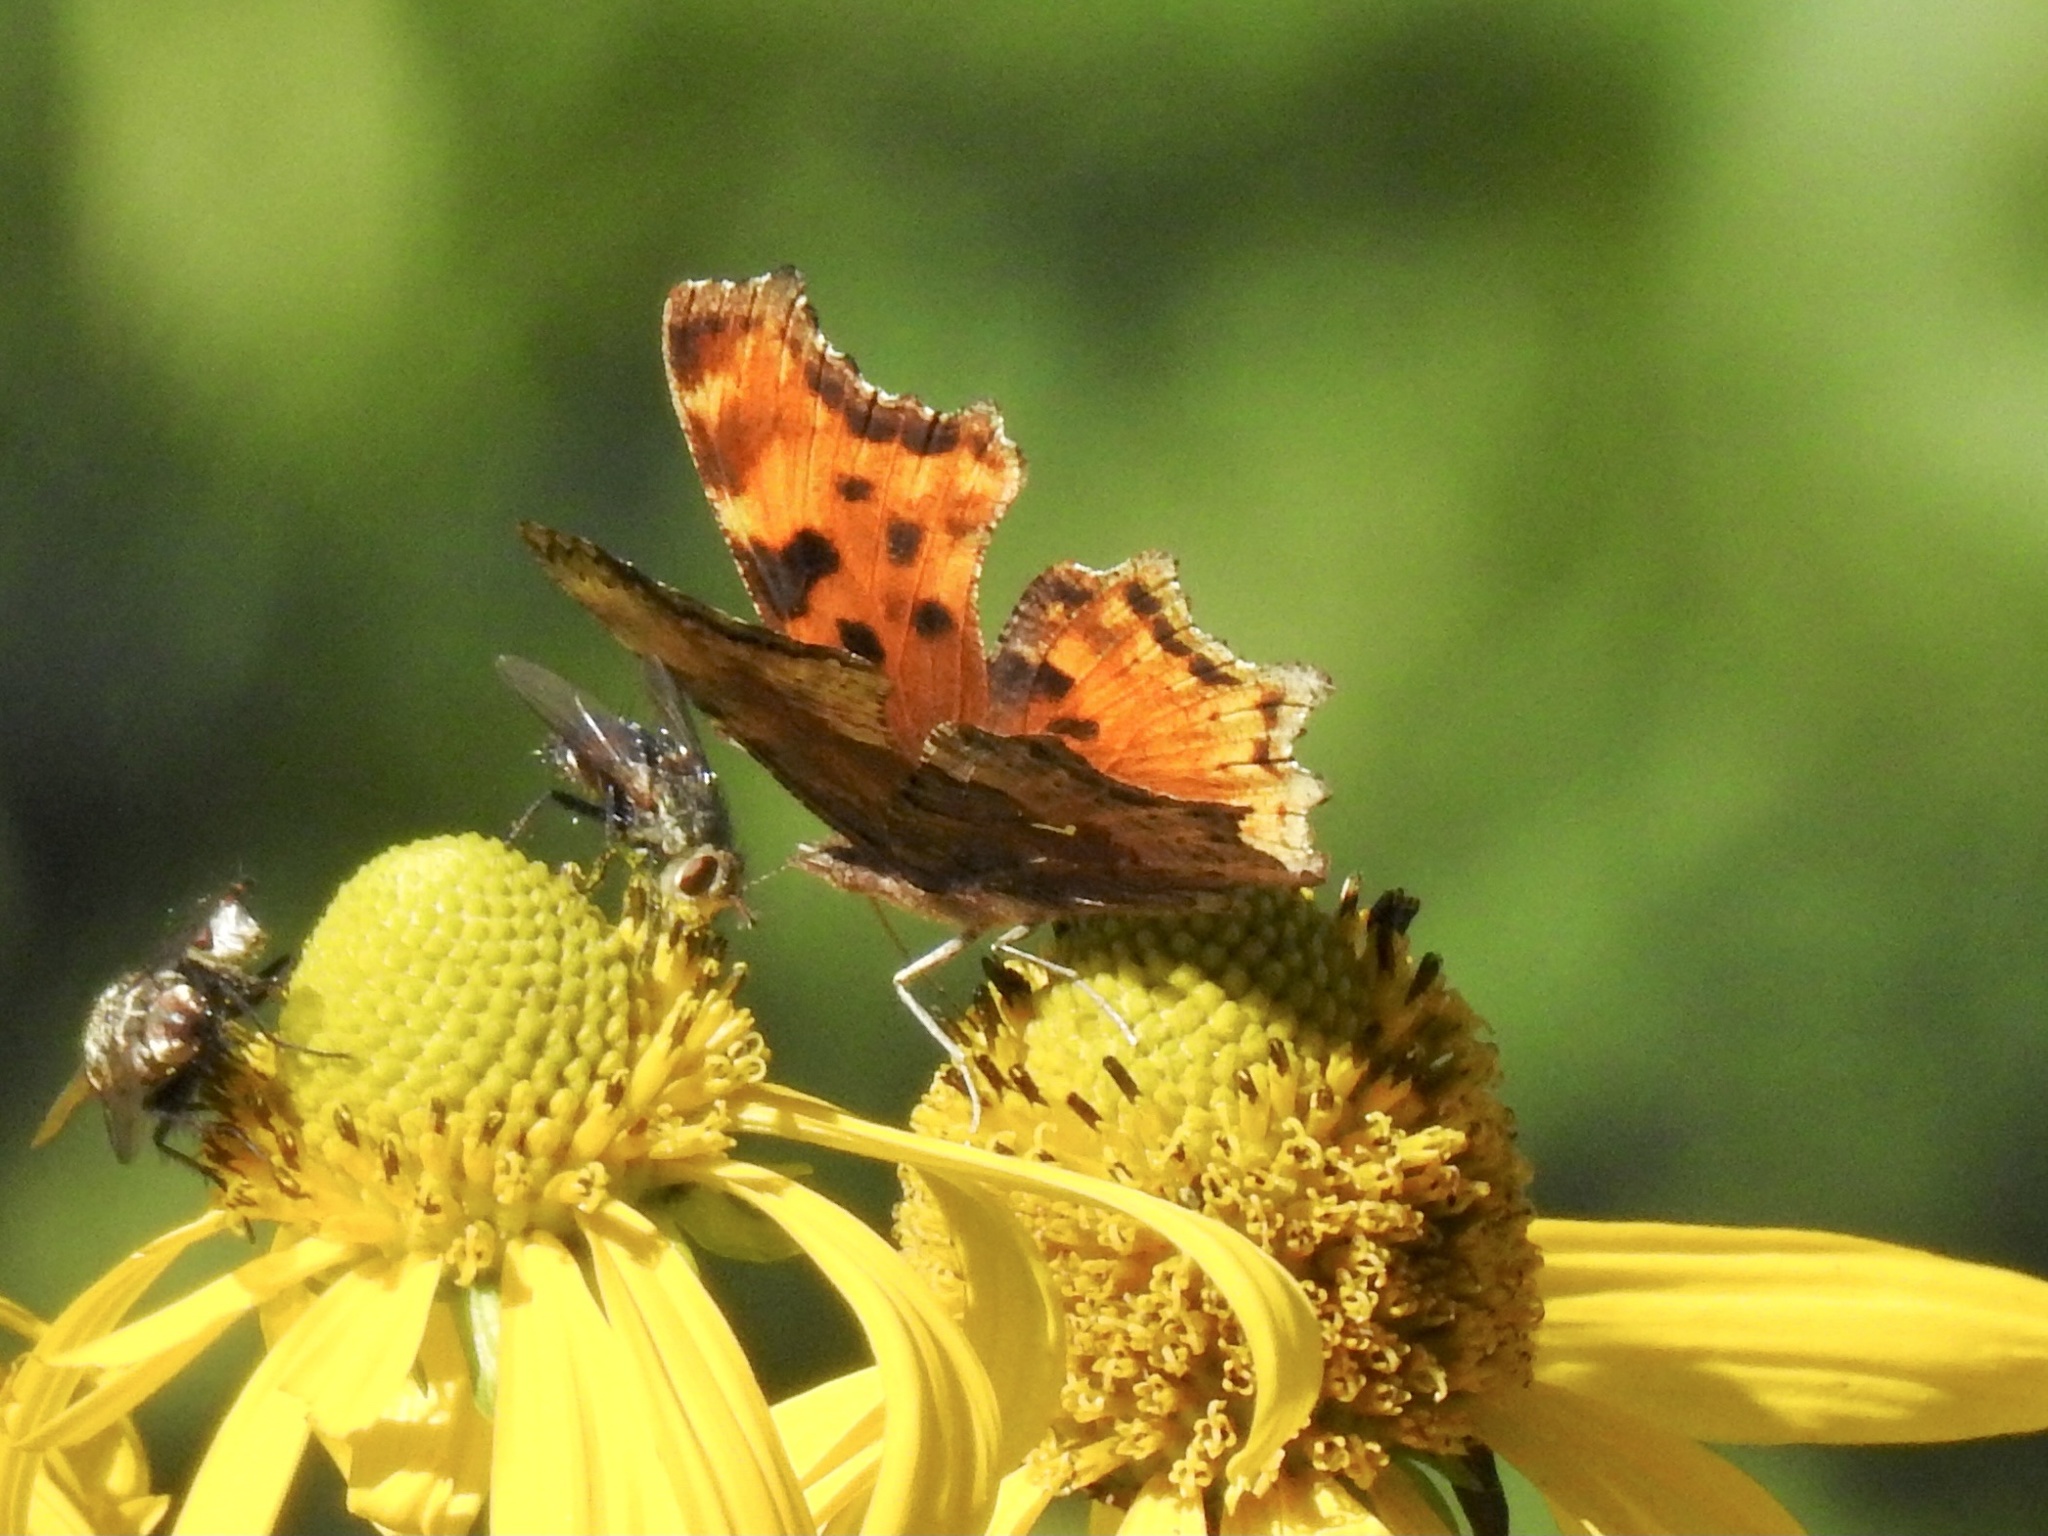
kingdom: Animalia
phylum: Arthropoda
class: Insecta
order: Lepidoptera
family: Nymphalidae
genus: Polygonia
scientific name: Polygonia gracilis
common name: Hoary comma
